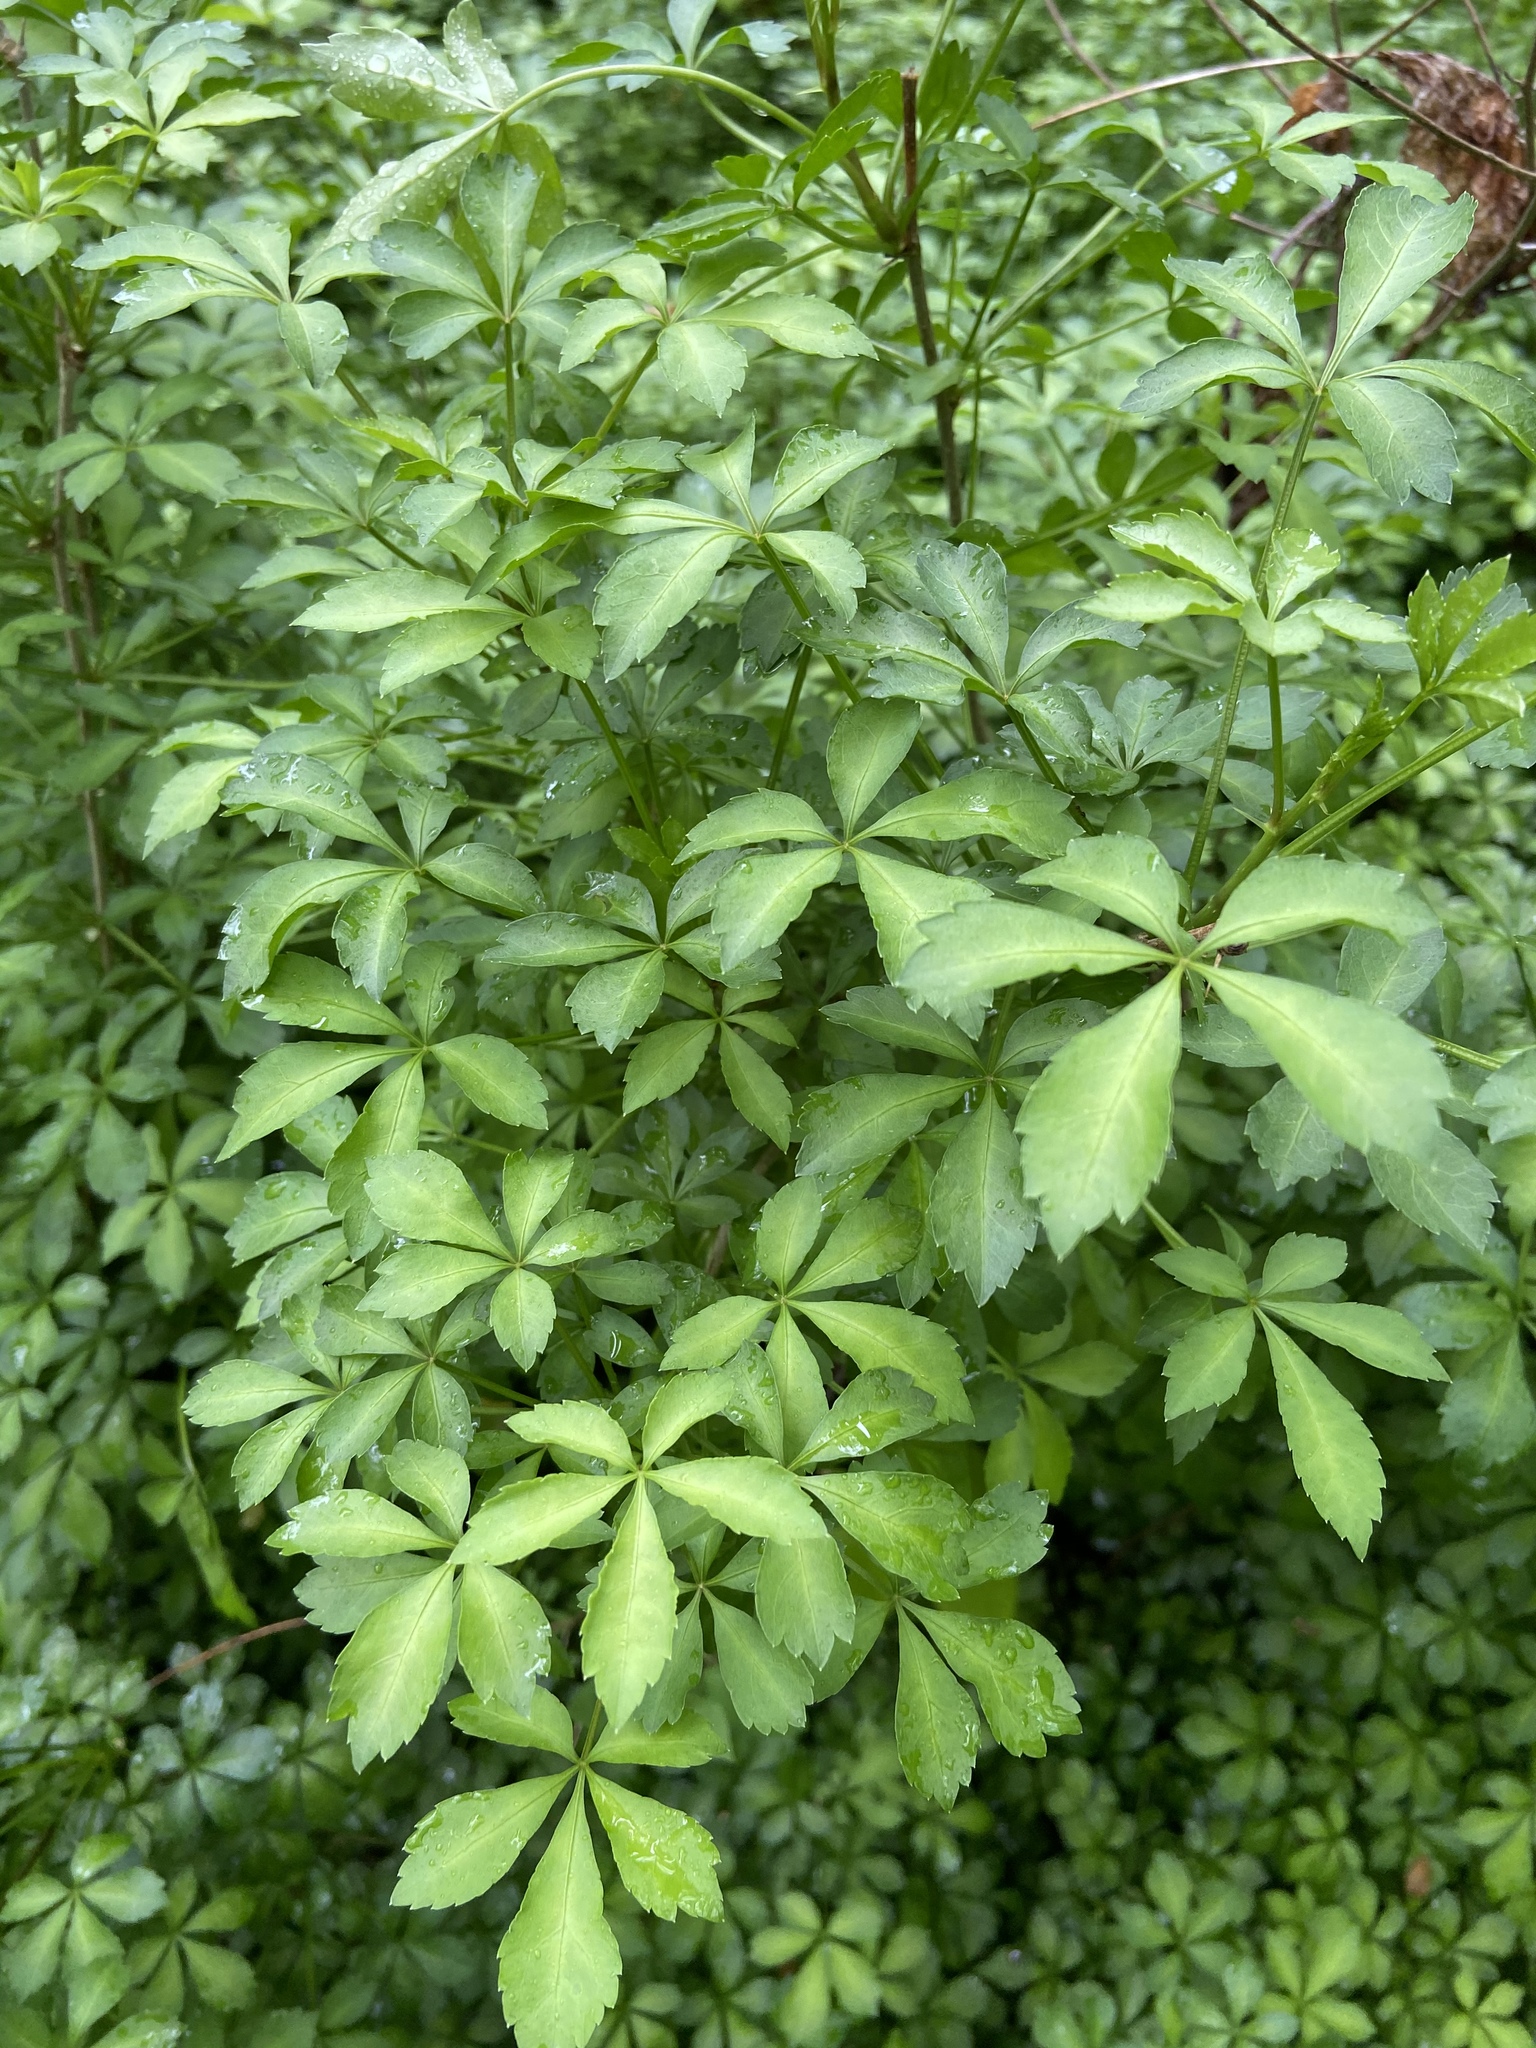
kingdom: Plantae
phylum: Tracheophyta
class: Magnoliopsida
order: Apiales
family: Araliaceae
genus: Eleutherococcus
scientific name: Eleutherococcus sieboldianus
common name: Ginseng
